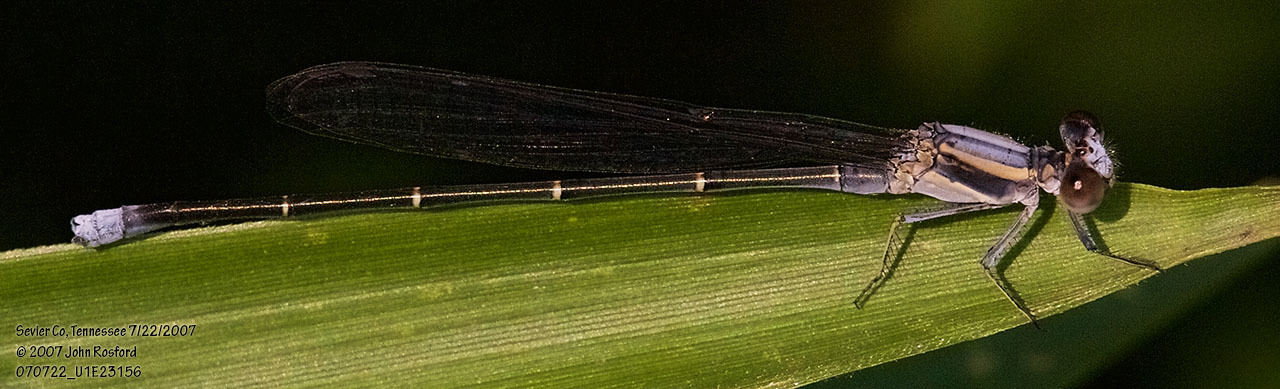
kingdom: Animalia
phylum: Arthropoda
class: Insecta
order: Odonata
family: Coenagrionidae
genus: Argia
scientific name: Argia moesta
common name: Powdered dancer
